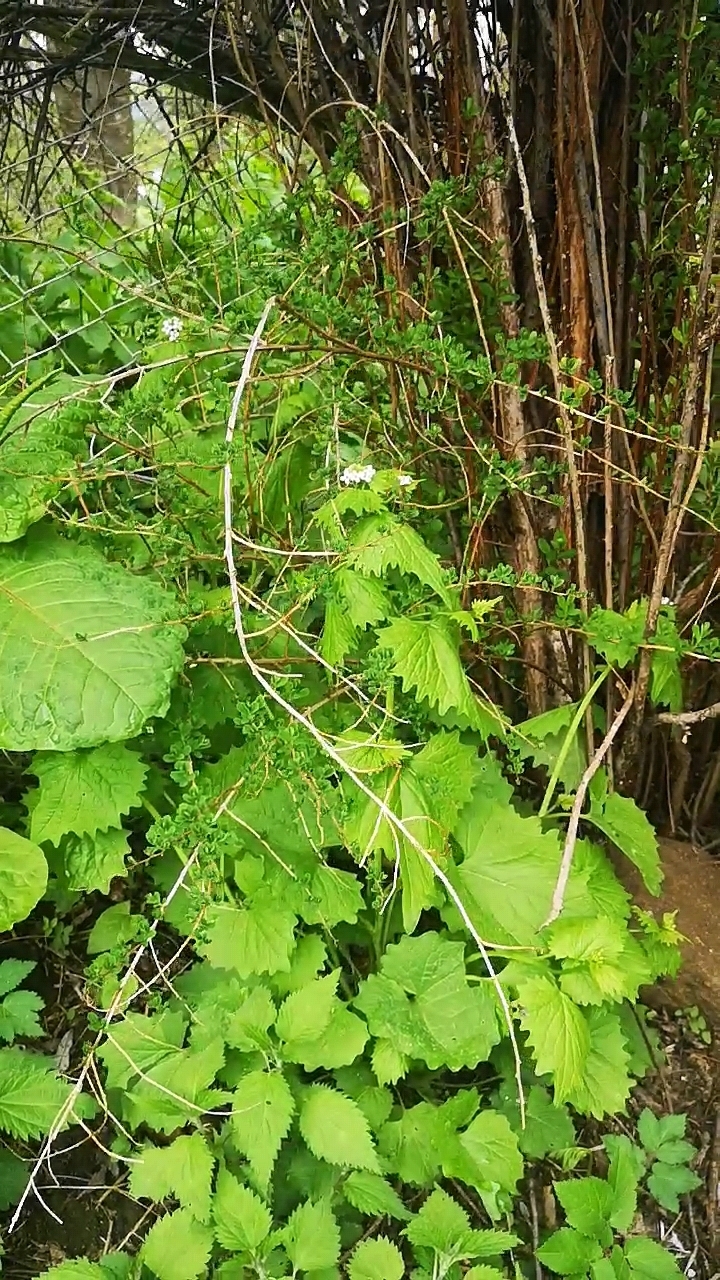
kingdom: Plantae
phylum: Tracheophyta
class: Magnoliopsida
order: Brassicales
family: Brassicaceae
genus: Alliaria
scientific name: Alliaria petiolata
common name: Garlic mustard
